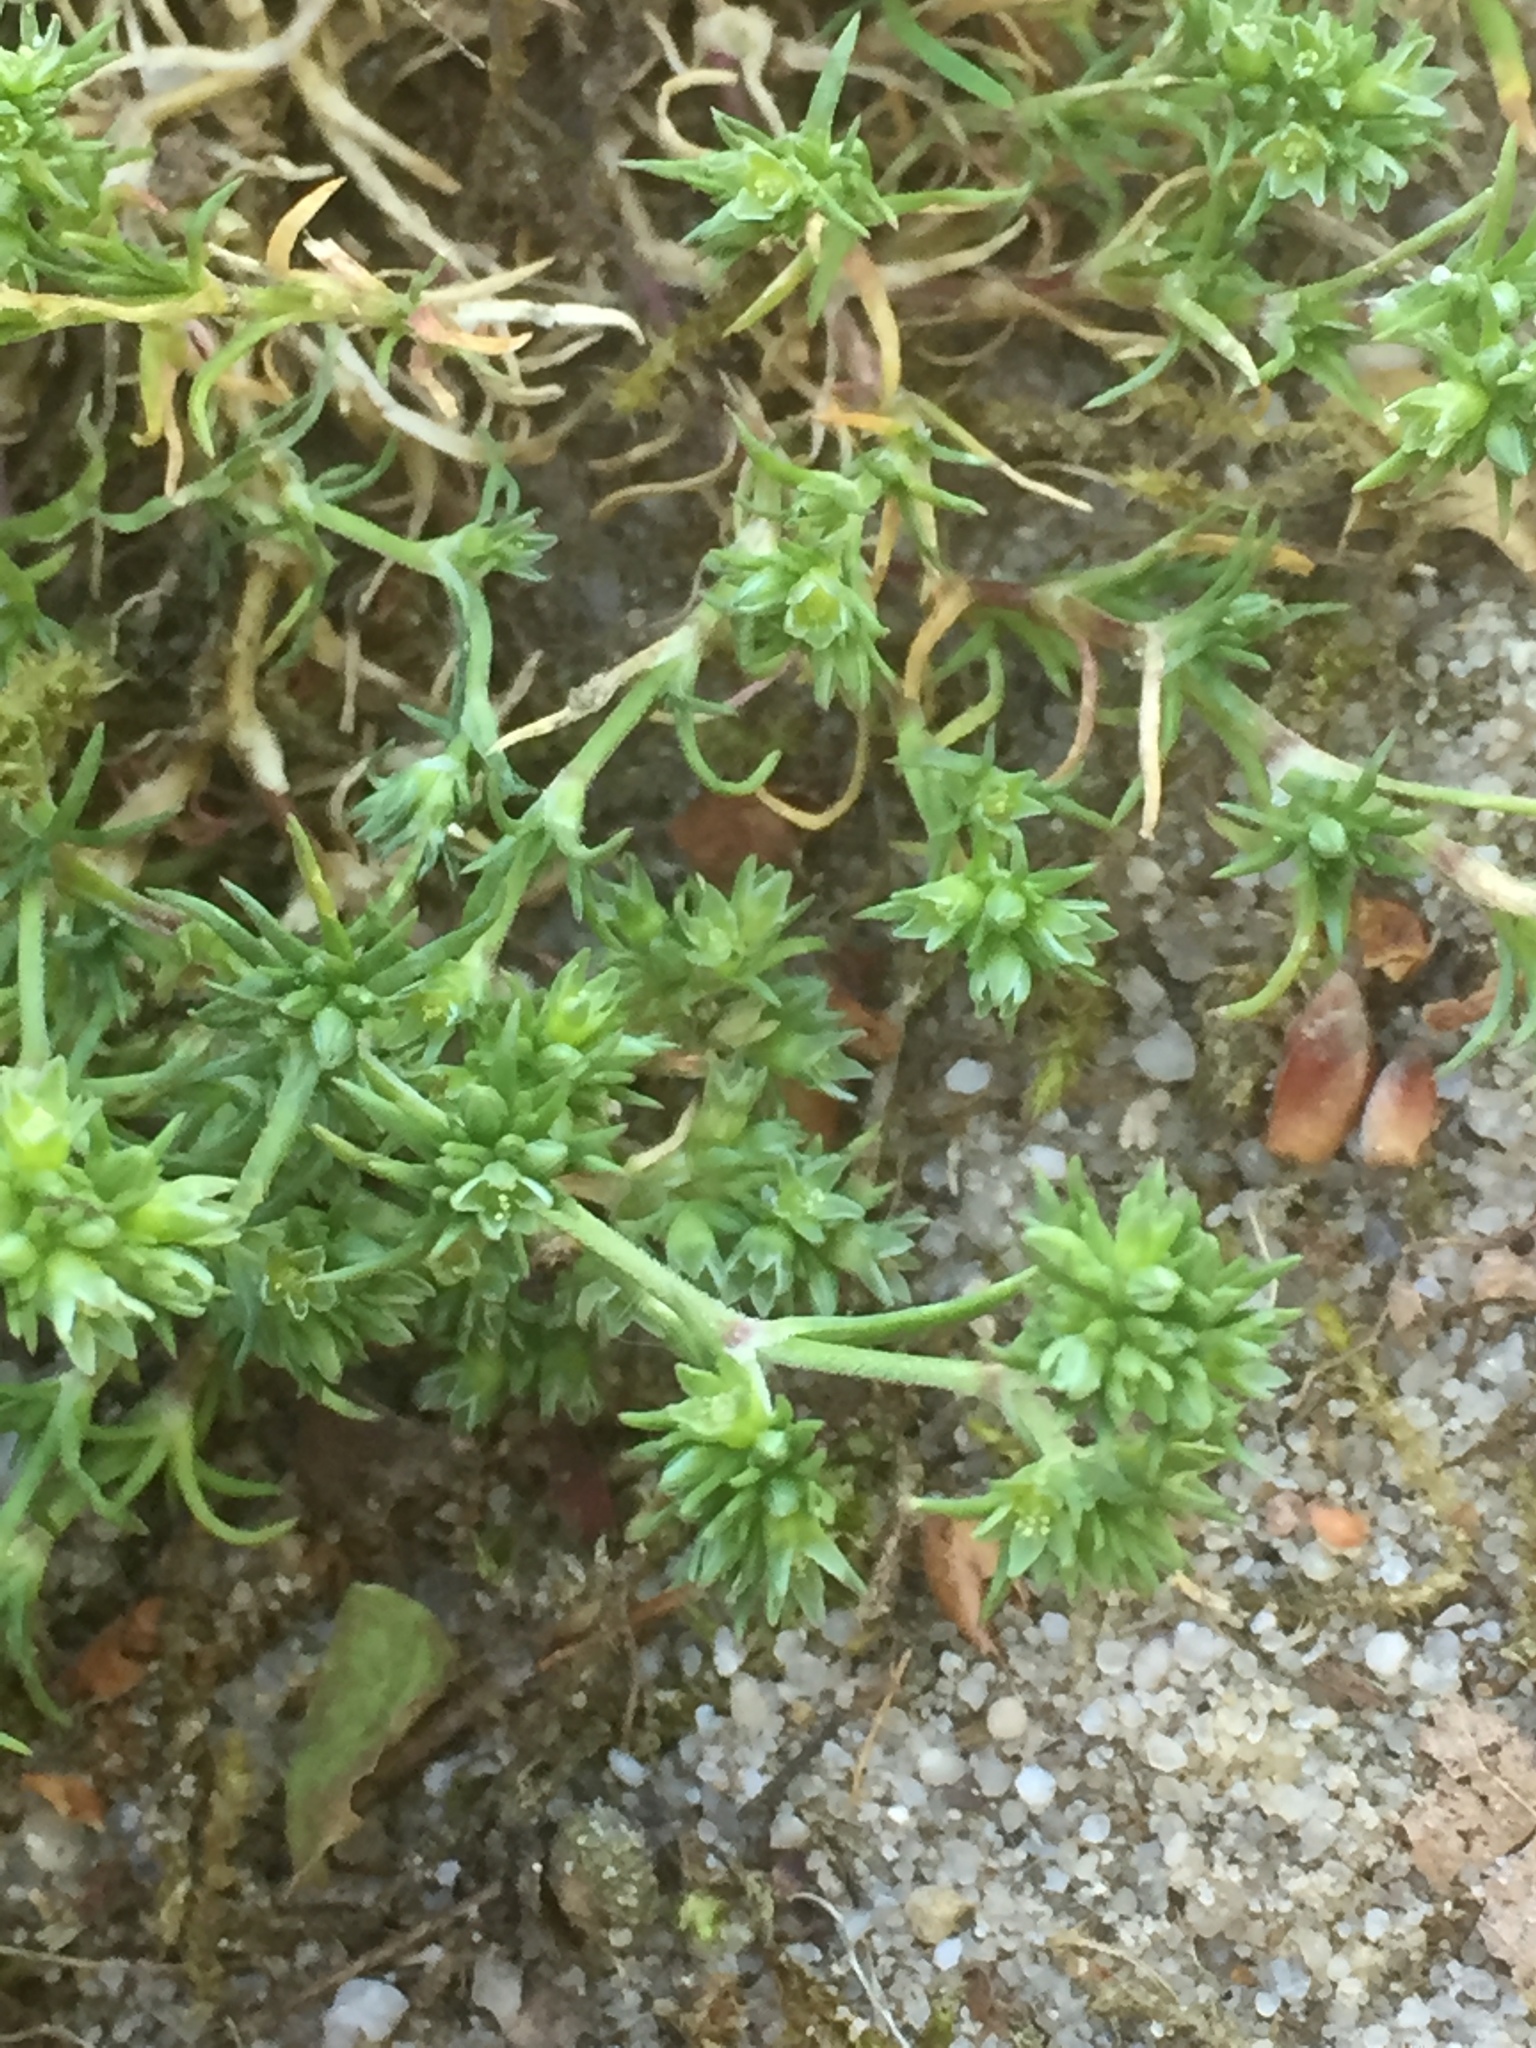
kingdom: Plantae
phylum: Tracheophyta
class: Magnoliopsida
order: Caryophyllales
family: Caryophyllaceae
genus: Scleranthus
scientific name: Scleranthus annuus
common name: Annual knawel
